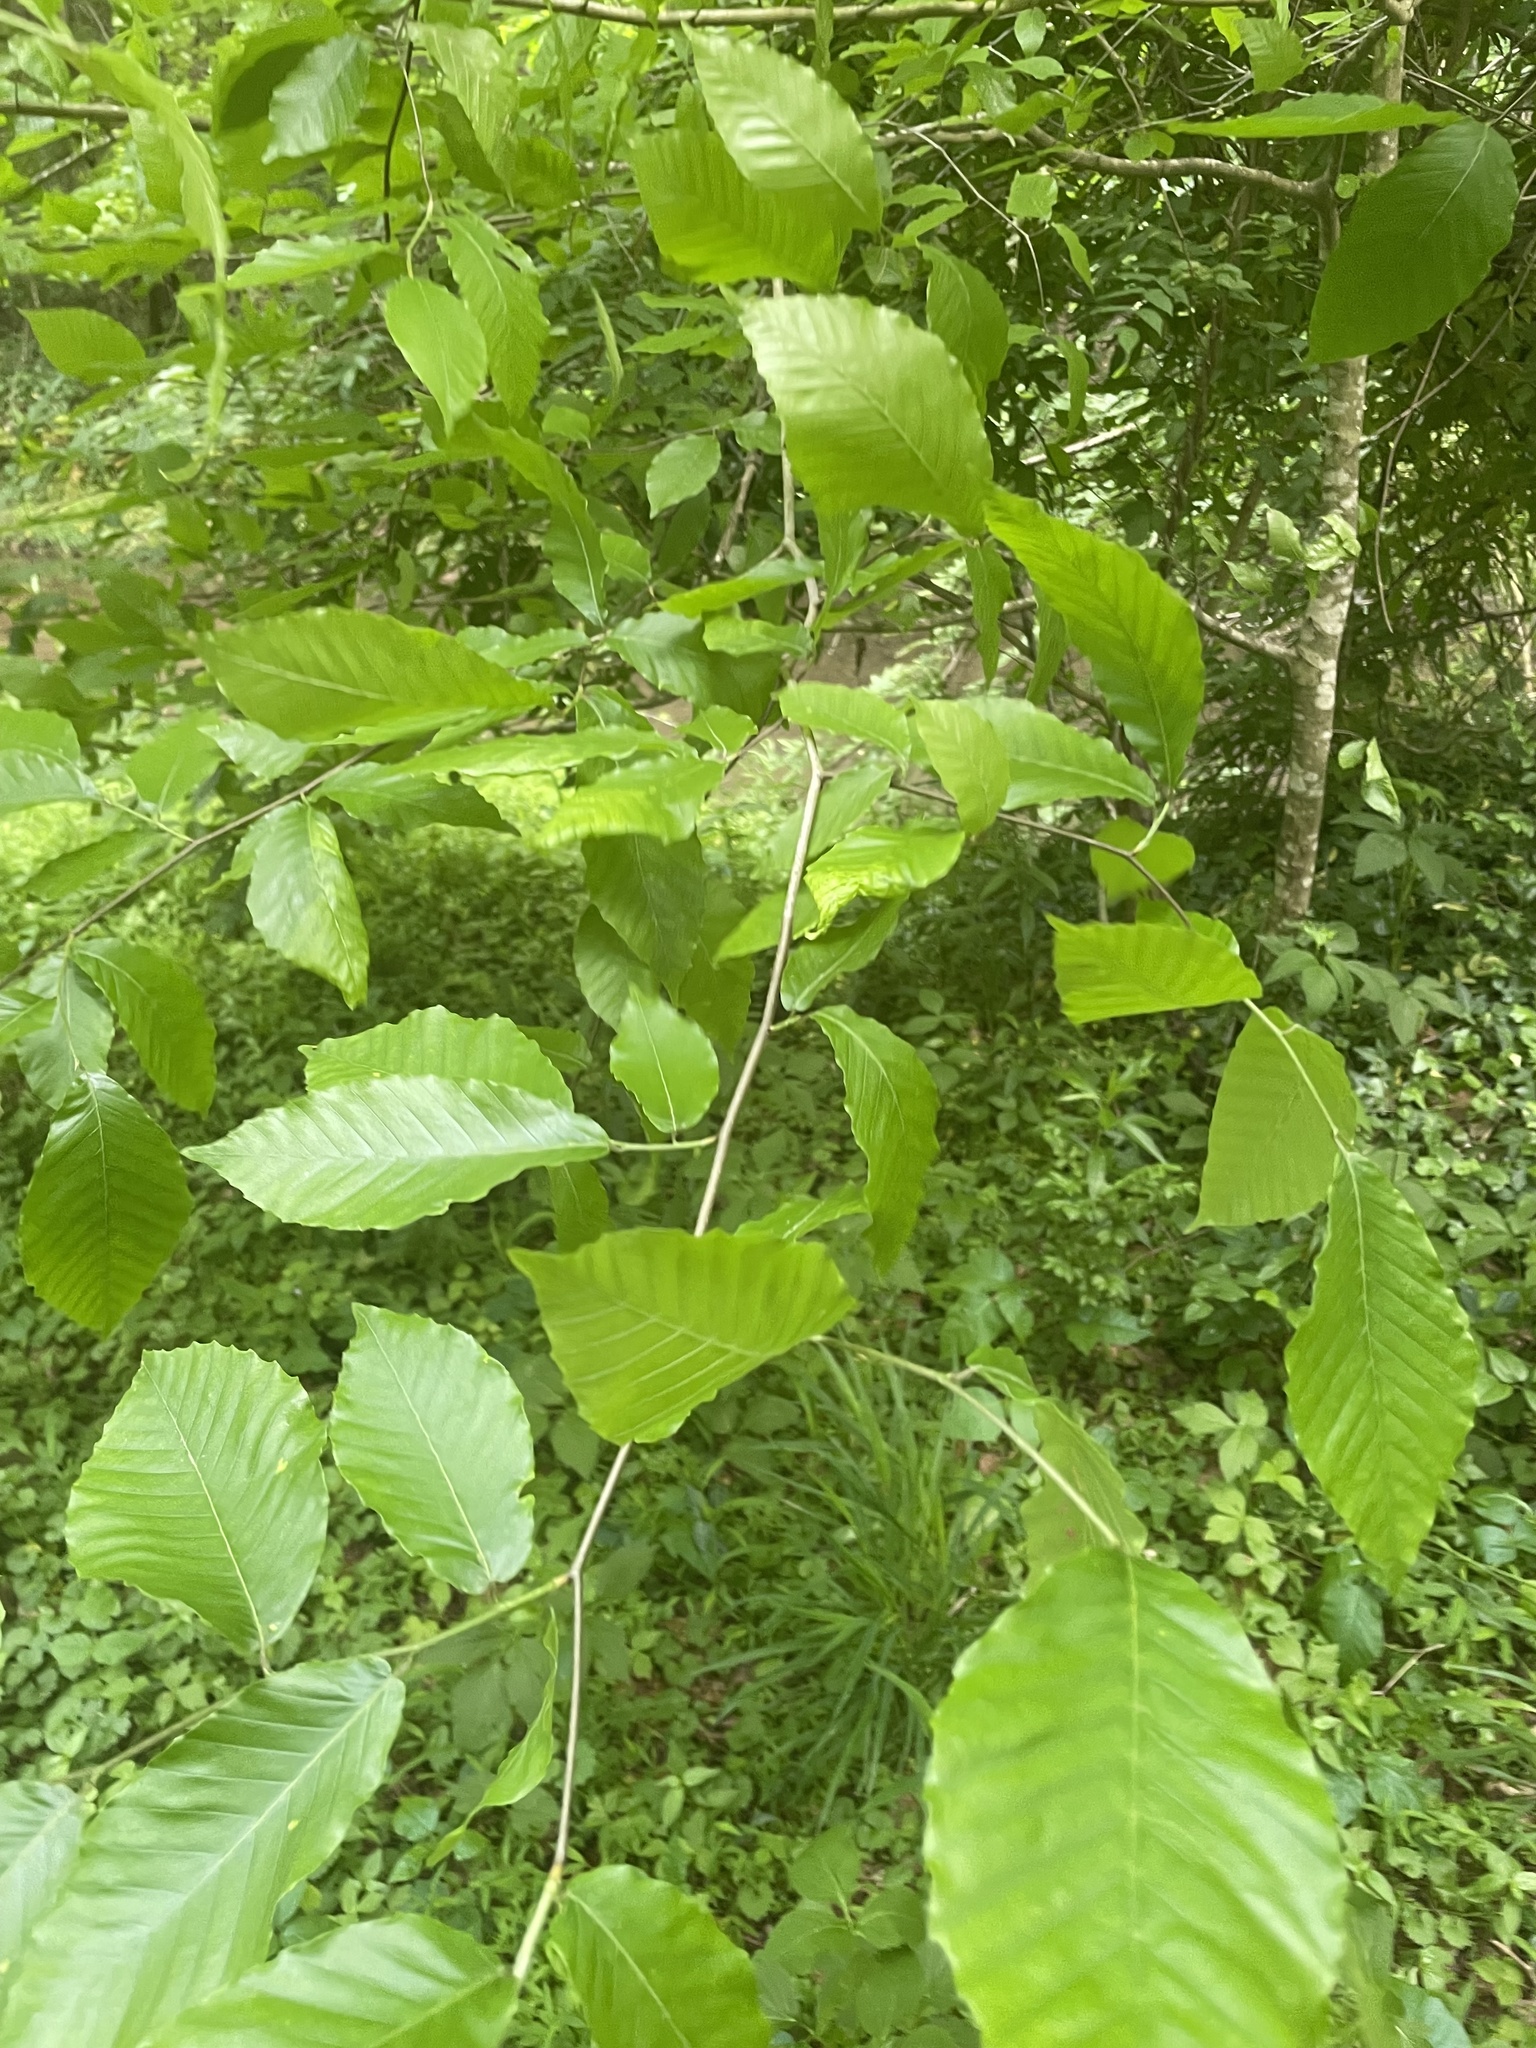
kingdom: Plantae
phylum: Tracheophyta
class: Magnoliopsida
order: Fagales
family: Fagaceae
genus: Fagus
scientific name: Fagus grandifolia
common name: American beech
